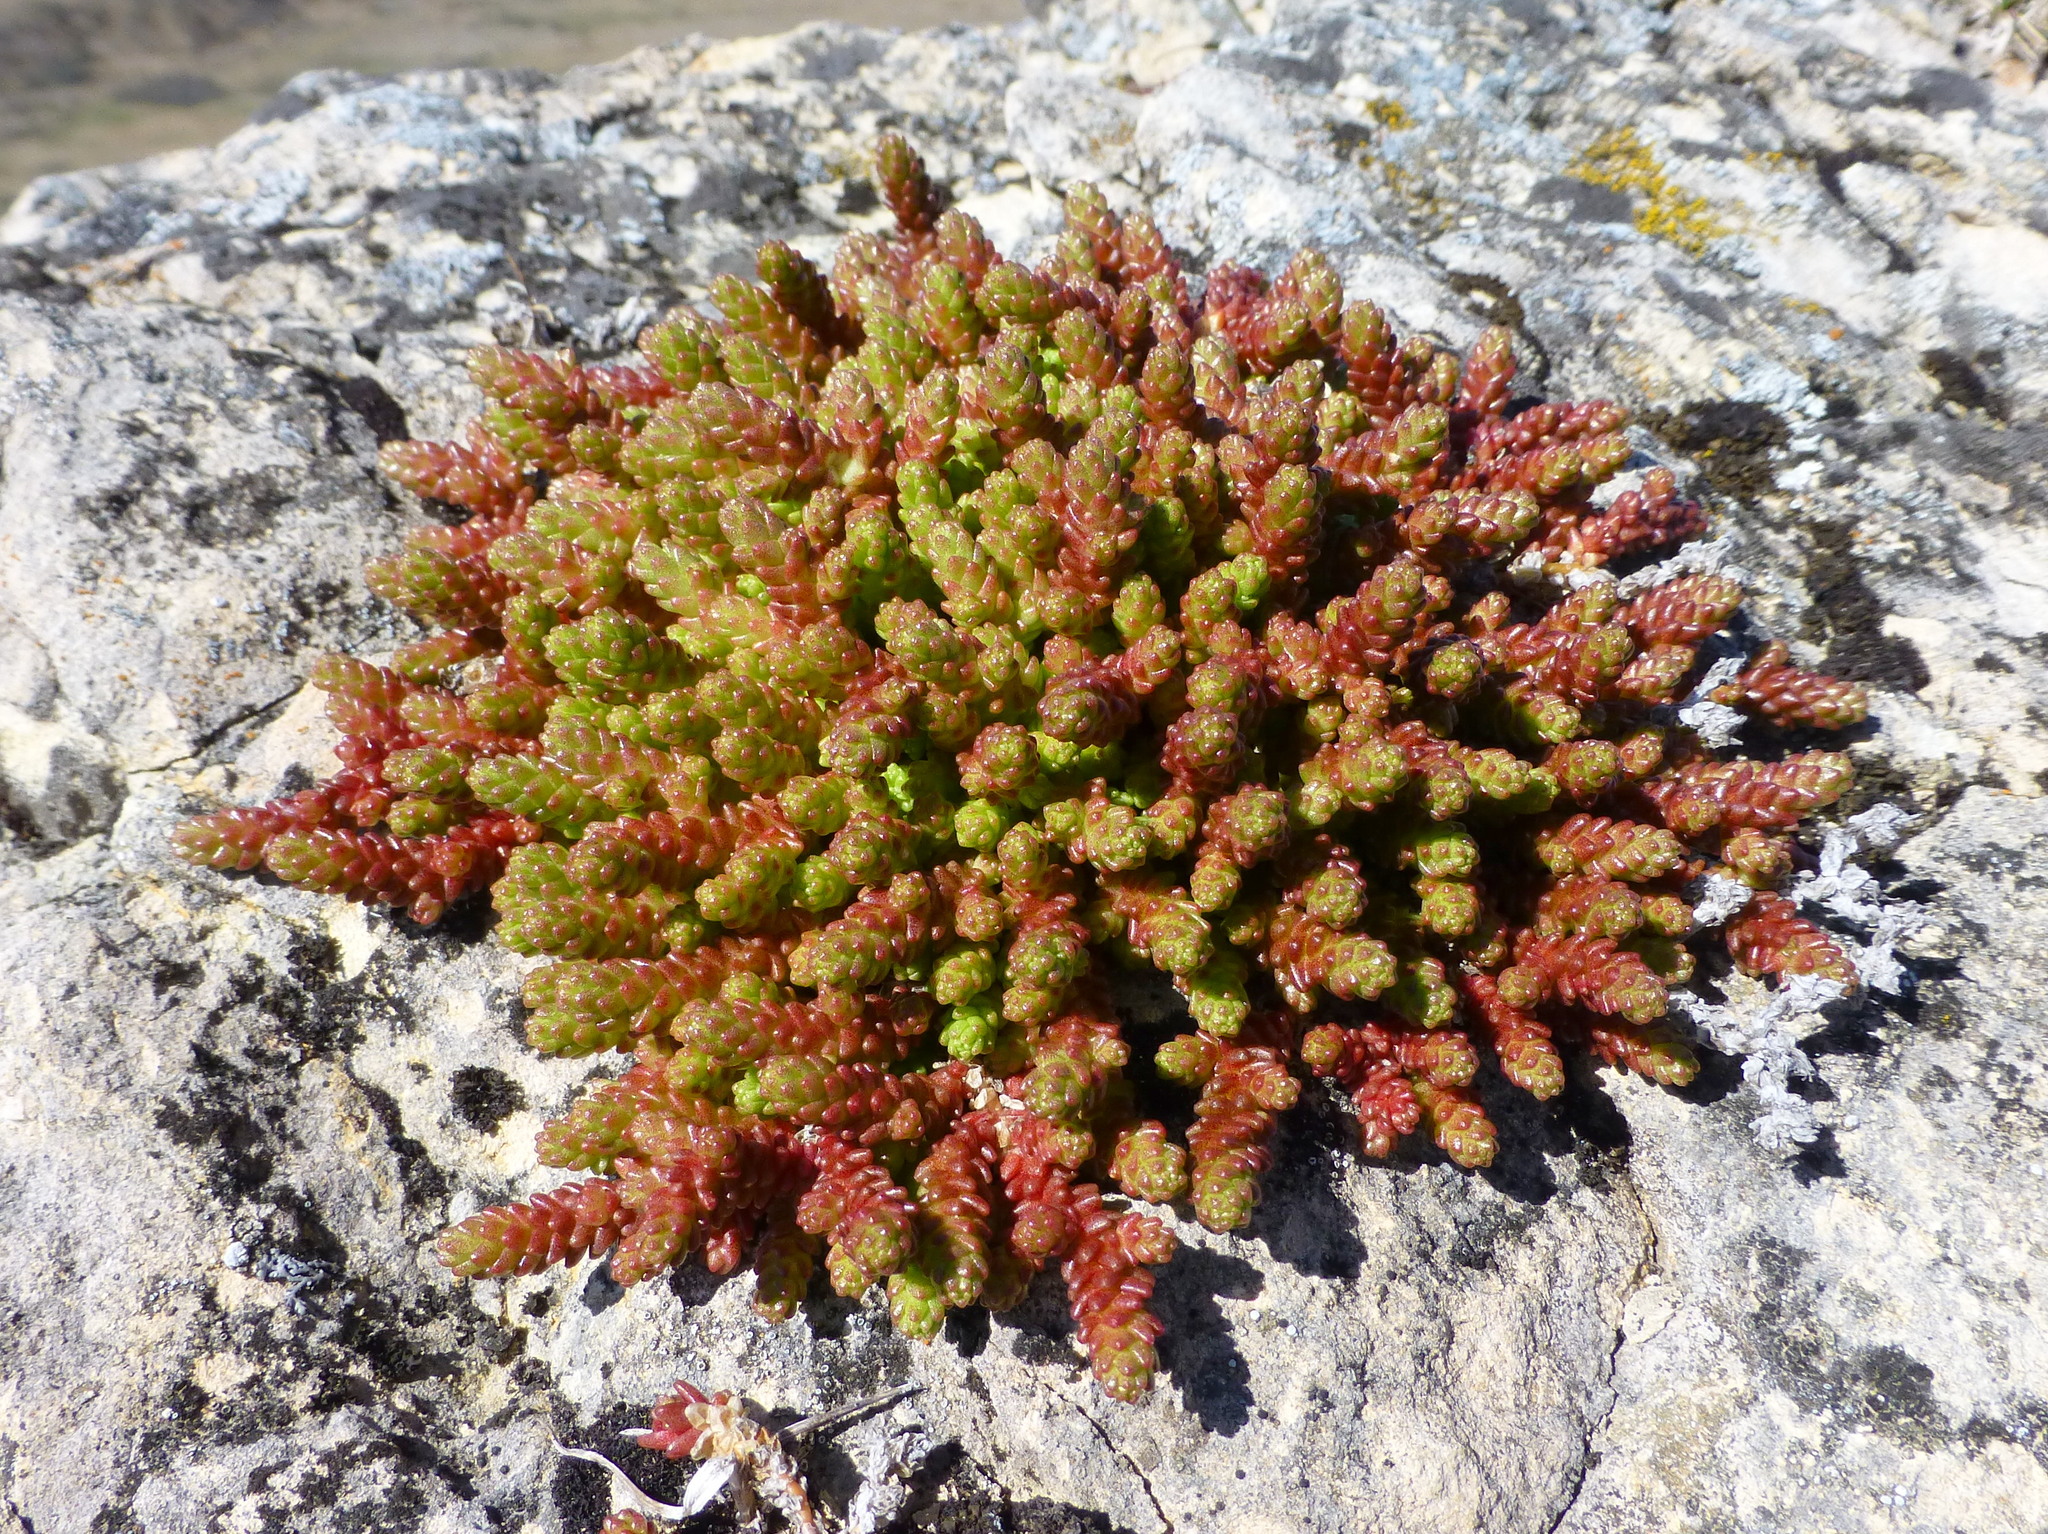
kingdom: Plantae
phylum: Tracheophyta
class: Magnoliopsida
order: Saxifragales
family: Crassulaceae
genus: Sedum
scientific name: Sedum acre
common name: Biting stonecrop
